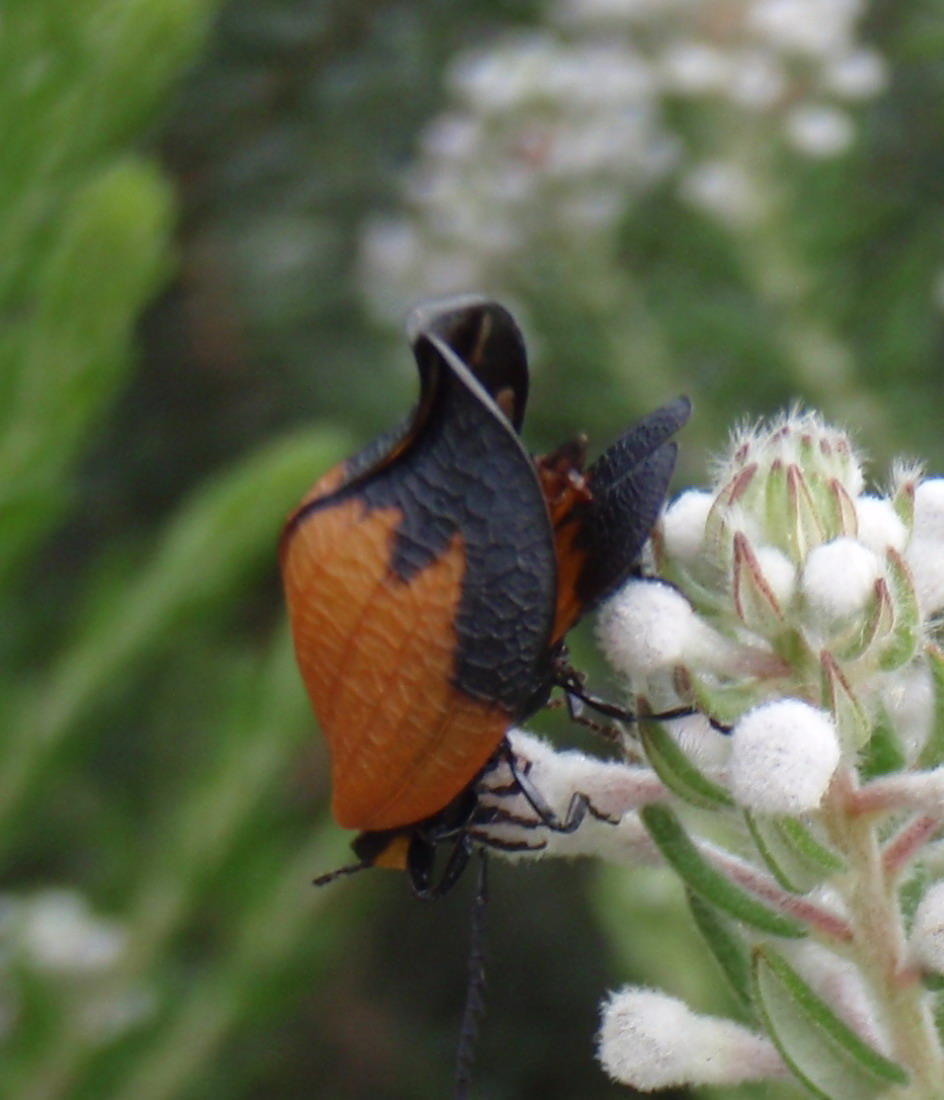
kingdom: Animalia
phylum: Arthropoda
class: Insecta
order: Coleoptera
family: Lycidae
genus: Lycus
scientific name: Lycus
